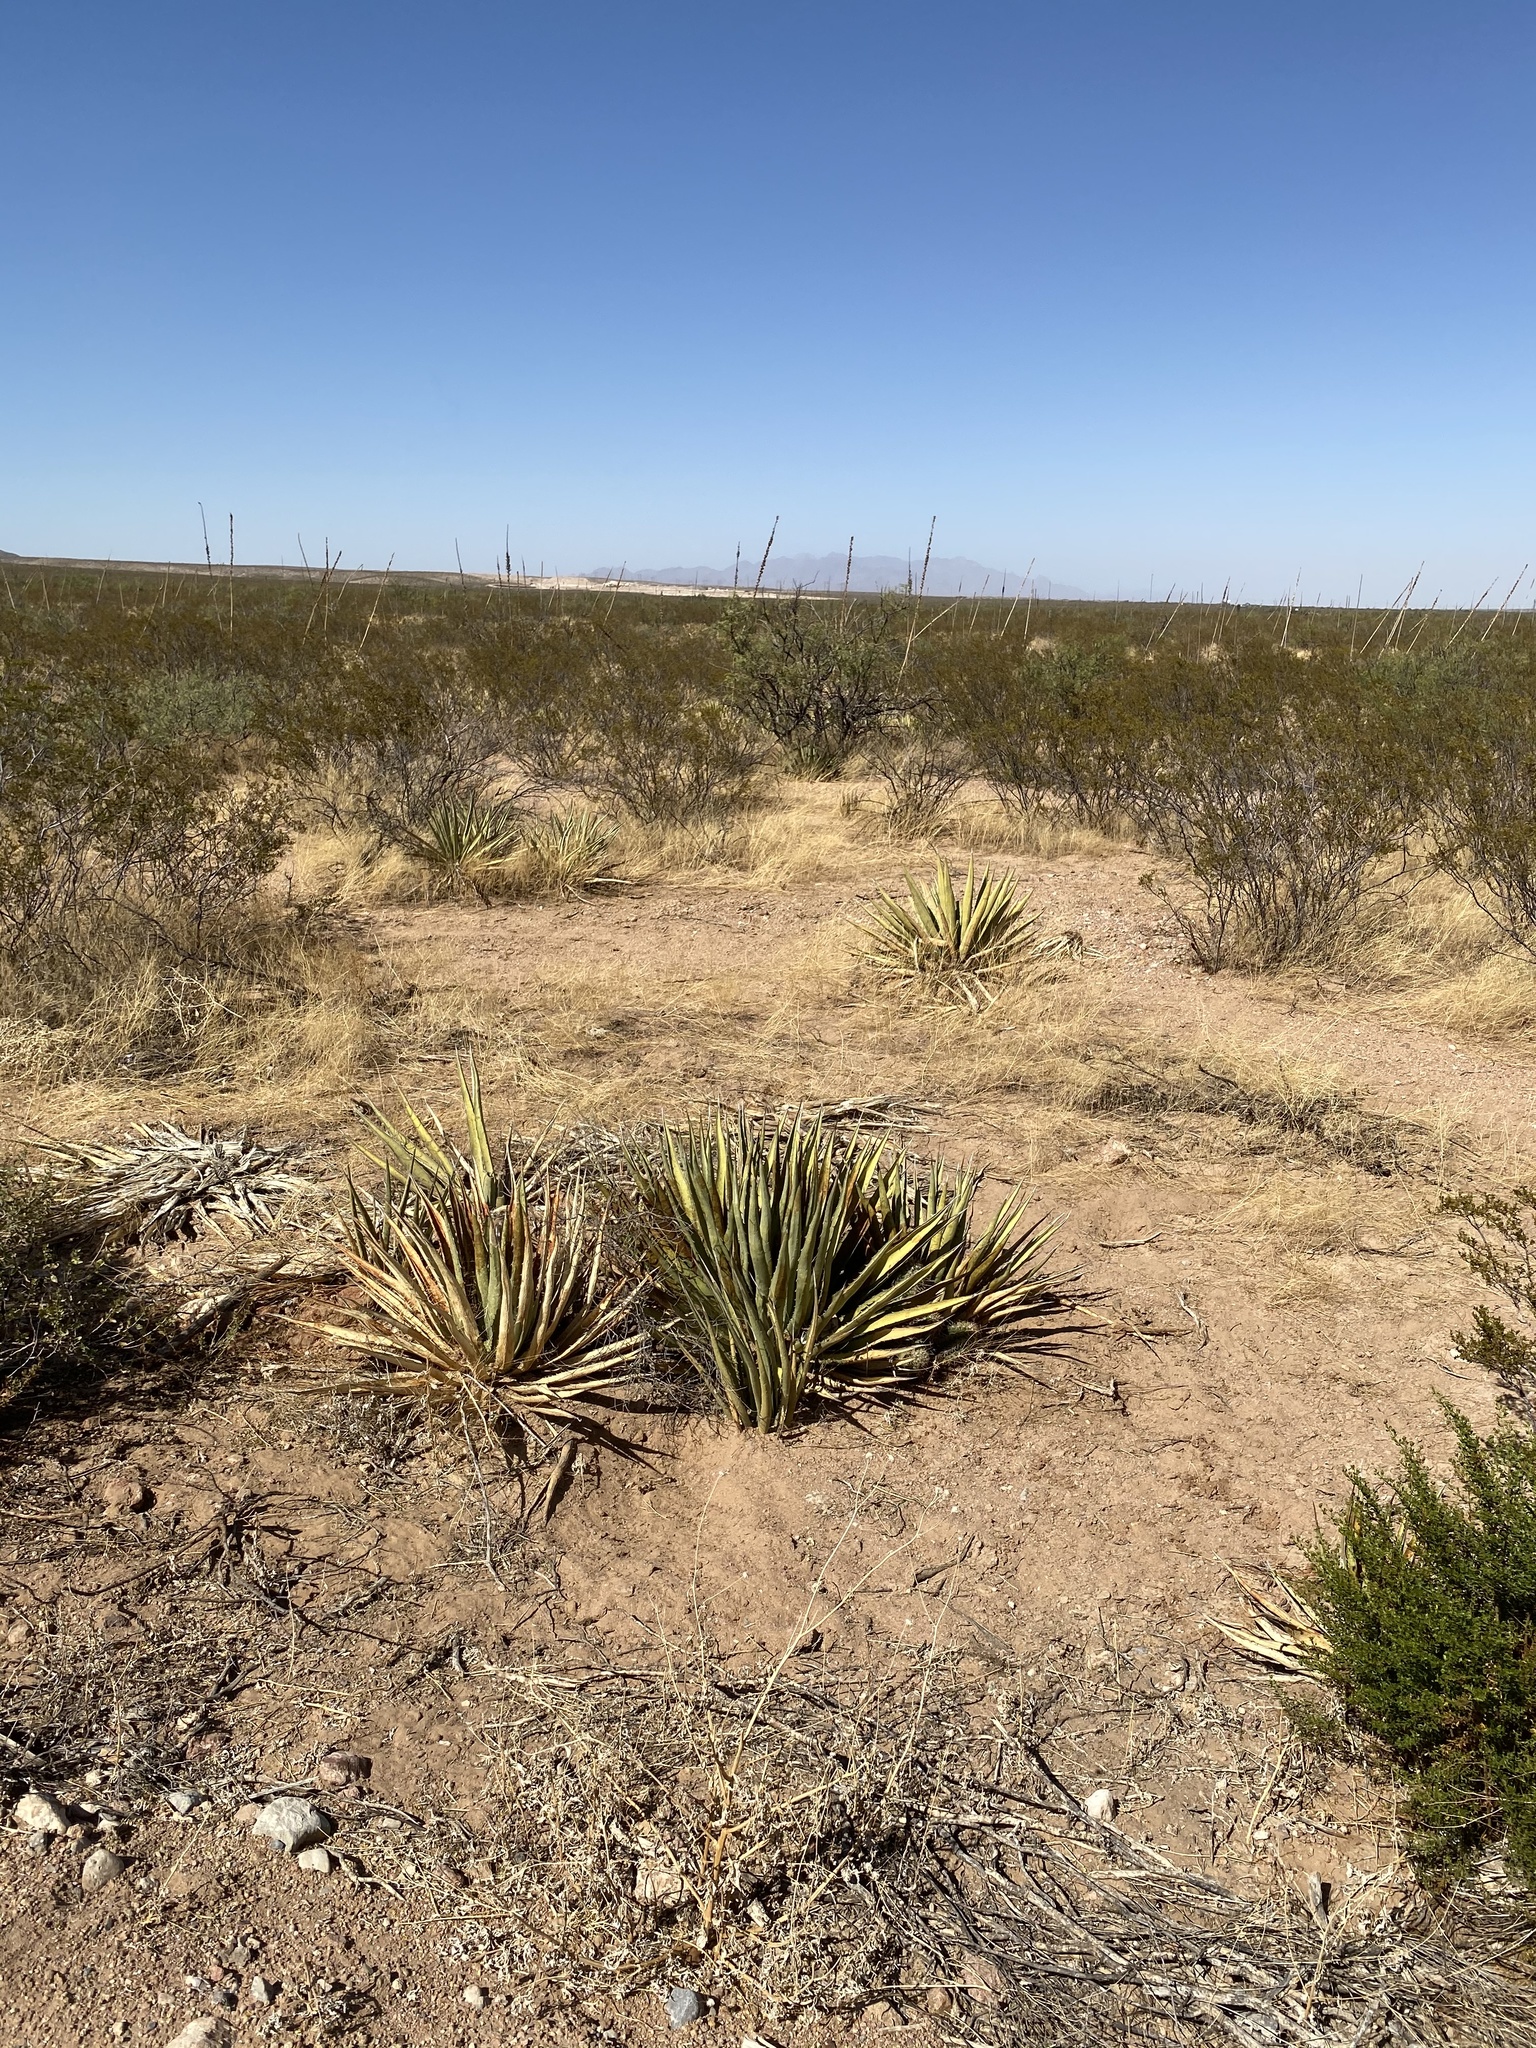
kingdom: Plantae
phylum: Tracheophyta
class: Liliopsida
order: Asparagales
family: Asparagaceae
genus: Agave
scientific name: Agave lechuguilla
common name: Lecheguilla agave
